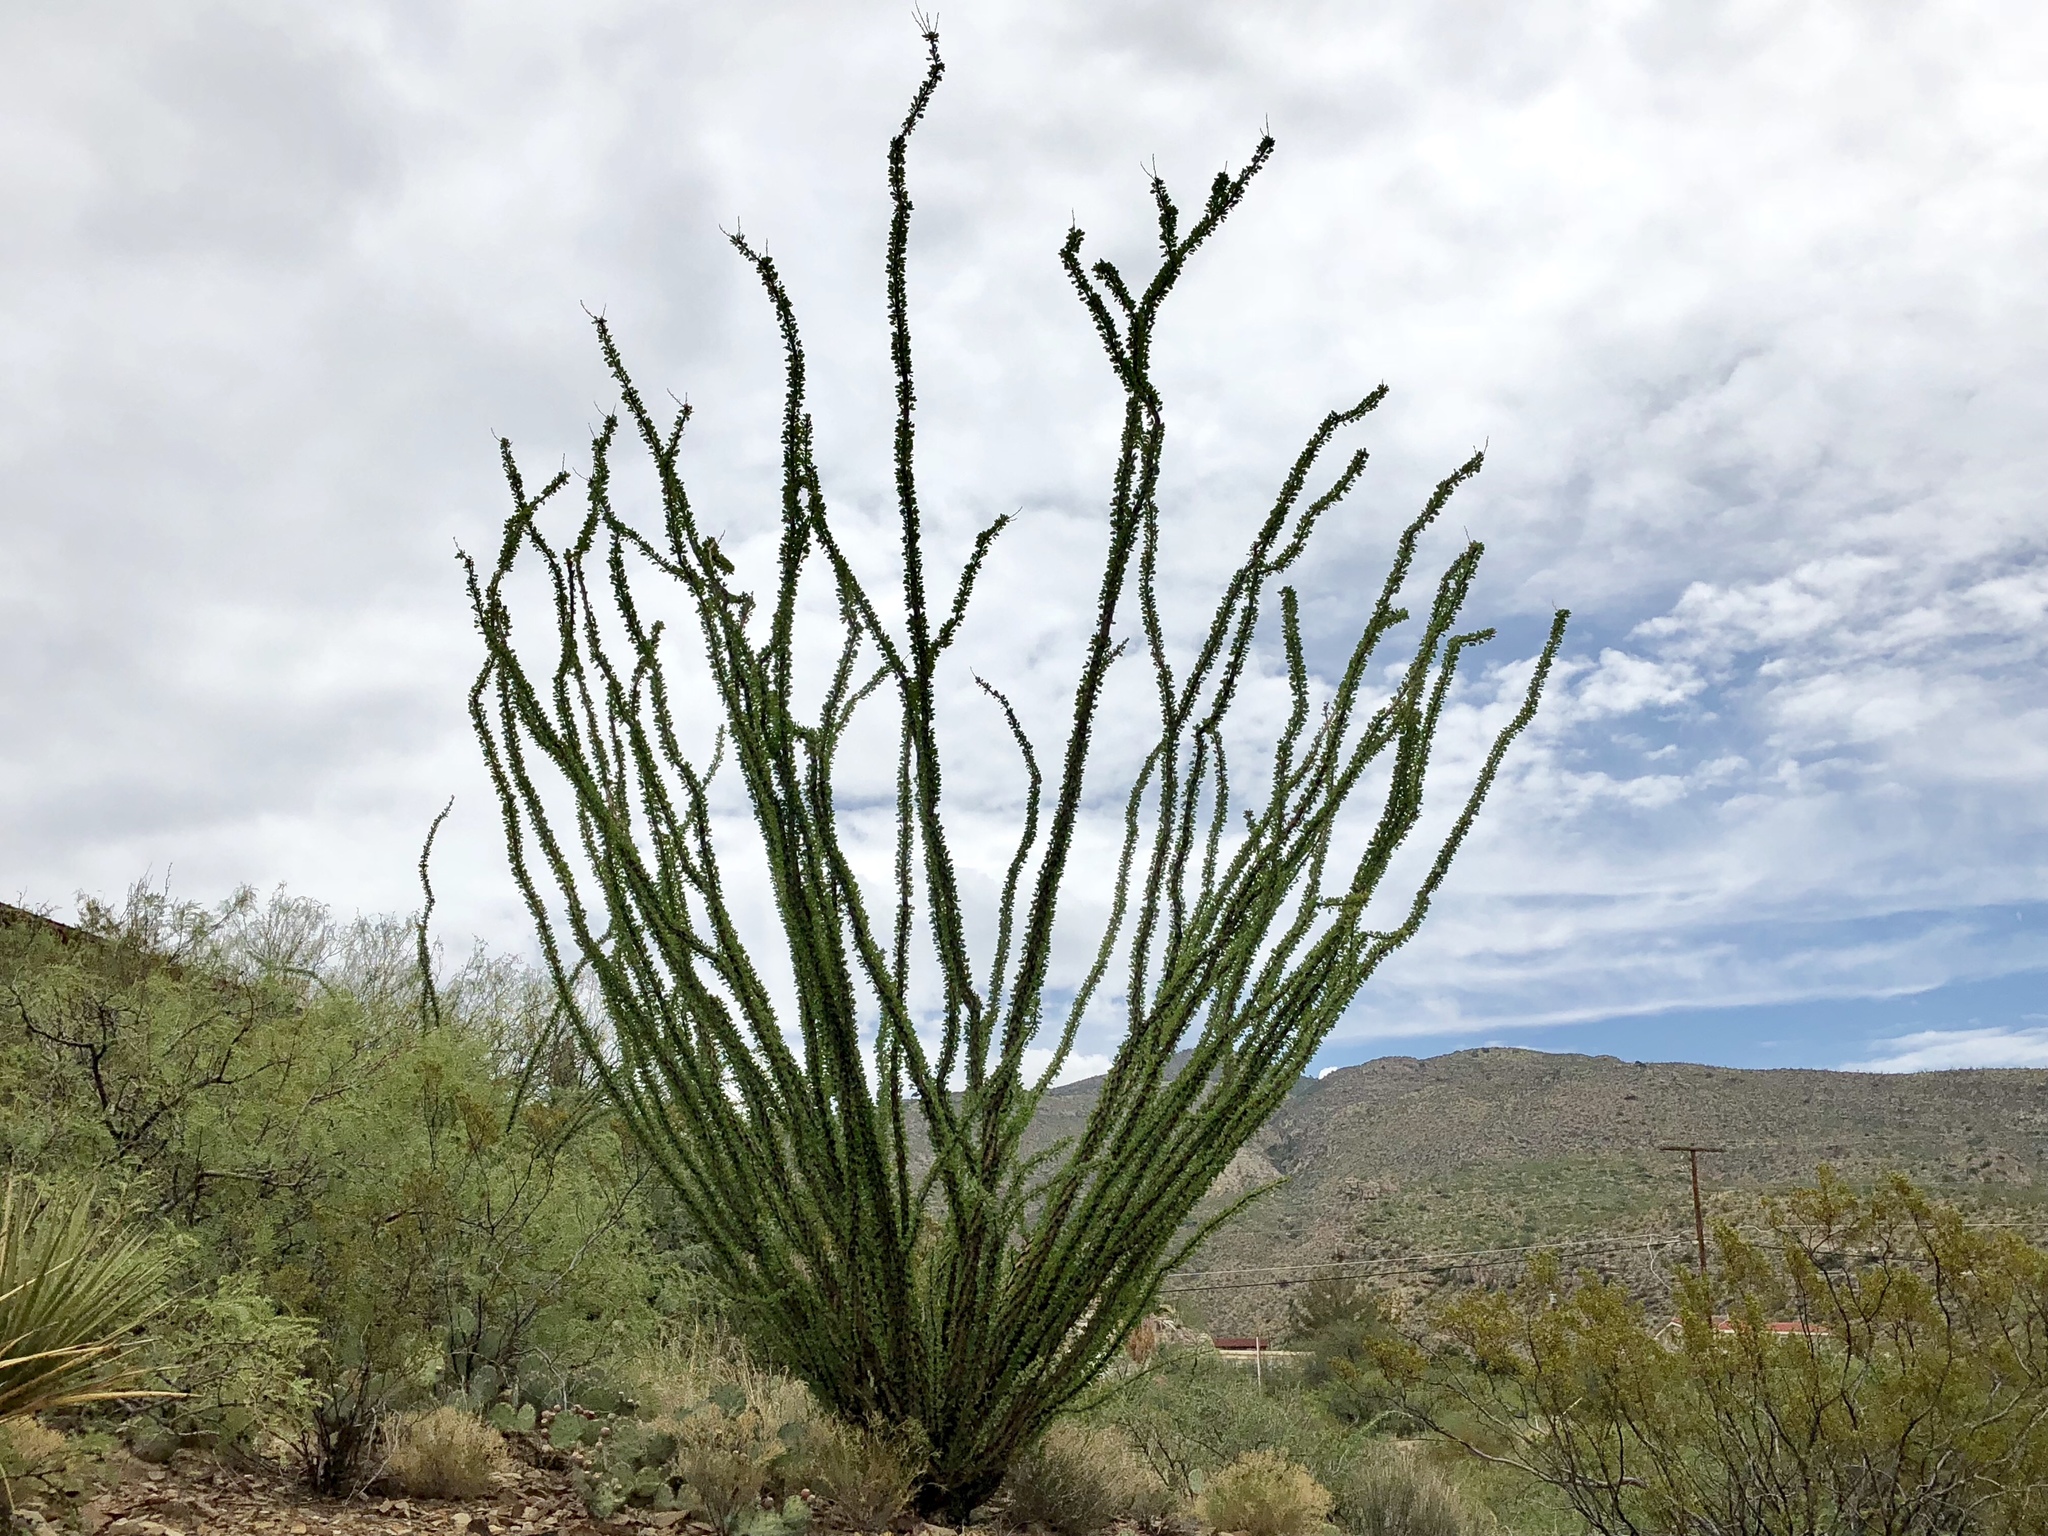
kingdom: Plantae
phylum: Tracheophyta
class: Magnoliopsida
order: Ericales
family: Fouquieriaceae
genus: Fouquieria
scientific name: Fouquieria splendens
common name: Vine-cactus
